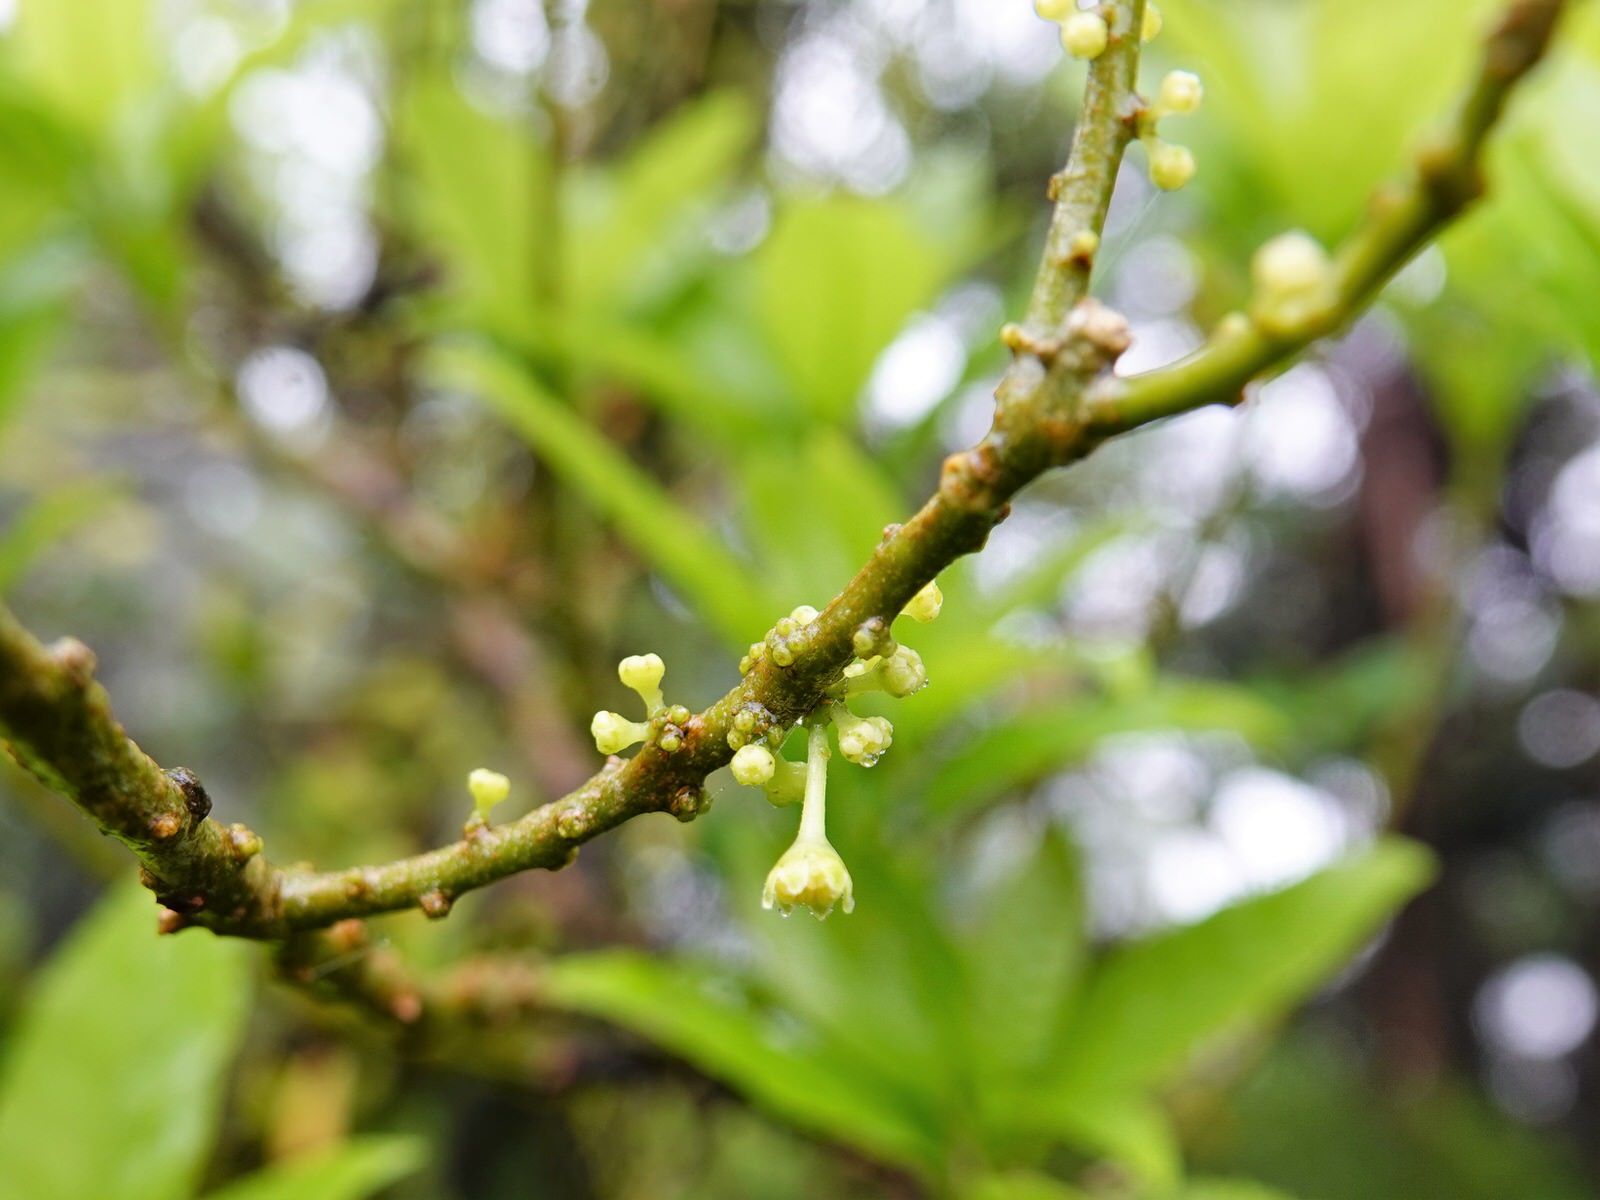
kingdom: Plantae
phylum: Tracheophyta
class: Magnoliopsida
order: Malpighiales
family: Violaceae
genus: Melicytus
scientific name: Melicytus ramiflorus
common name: Mahoe
